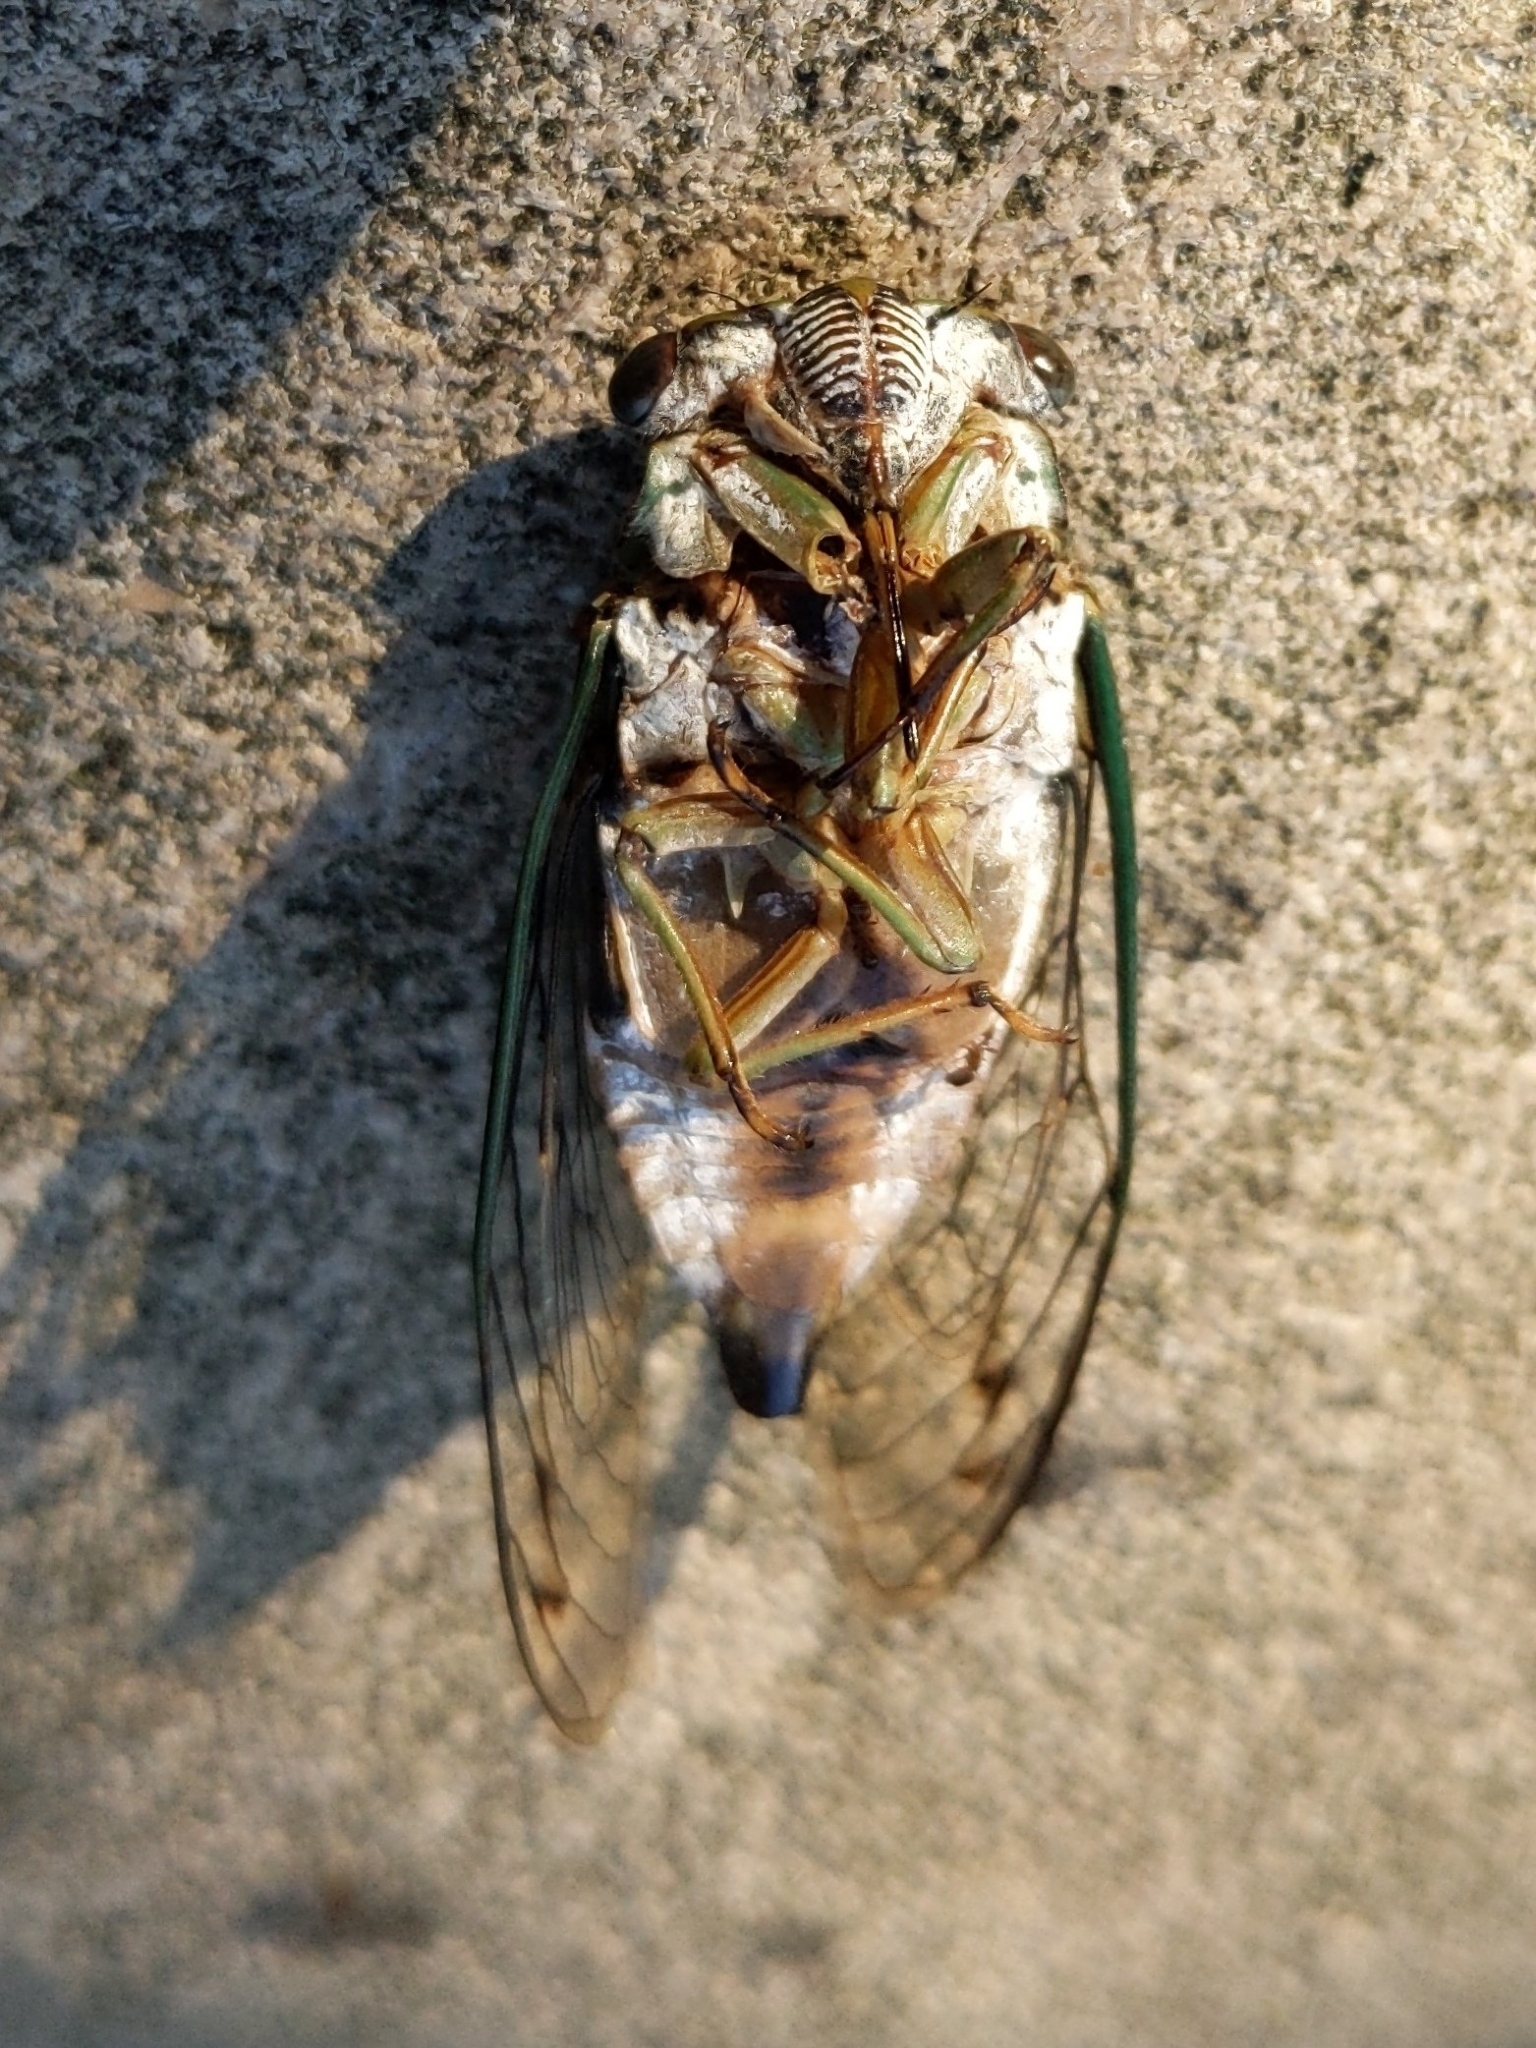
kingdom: Animalia
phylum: Arthropoda
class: Insecta
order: Hemiptera
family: Cicadidae
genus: Neotibicen
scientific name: Neotibicen pruinosus
